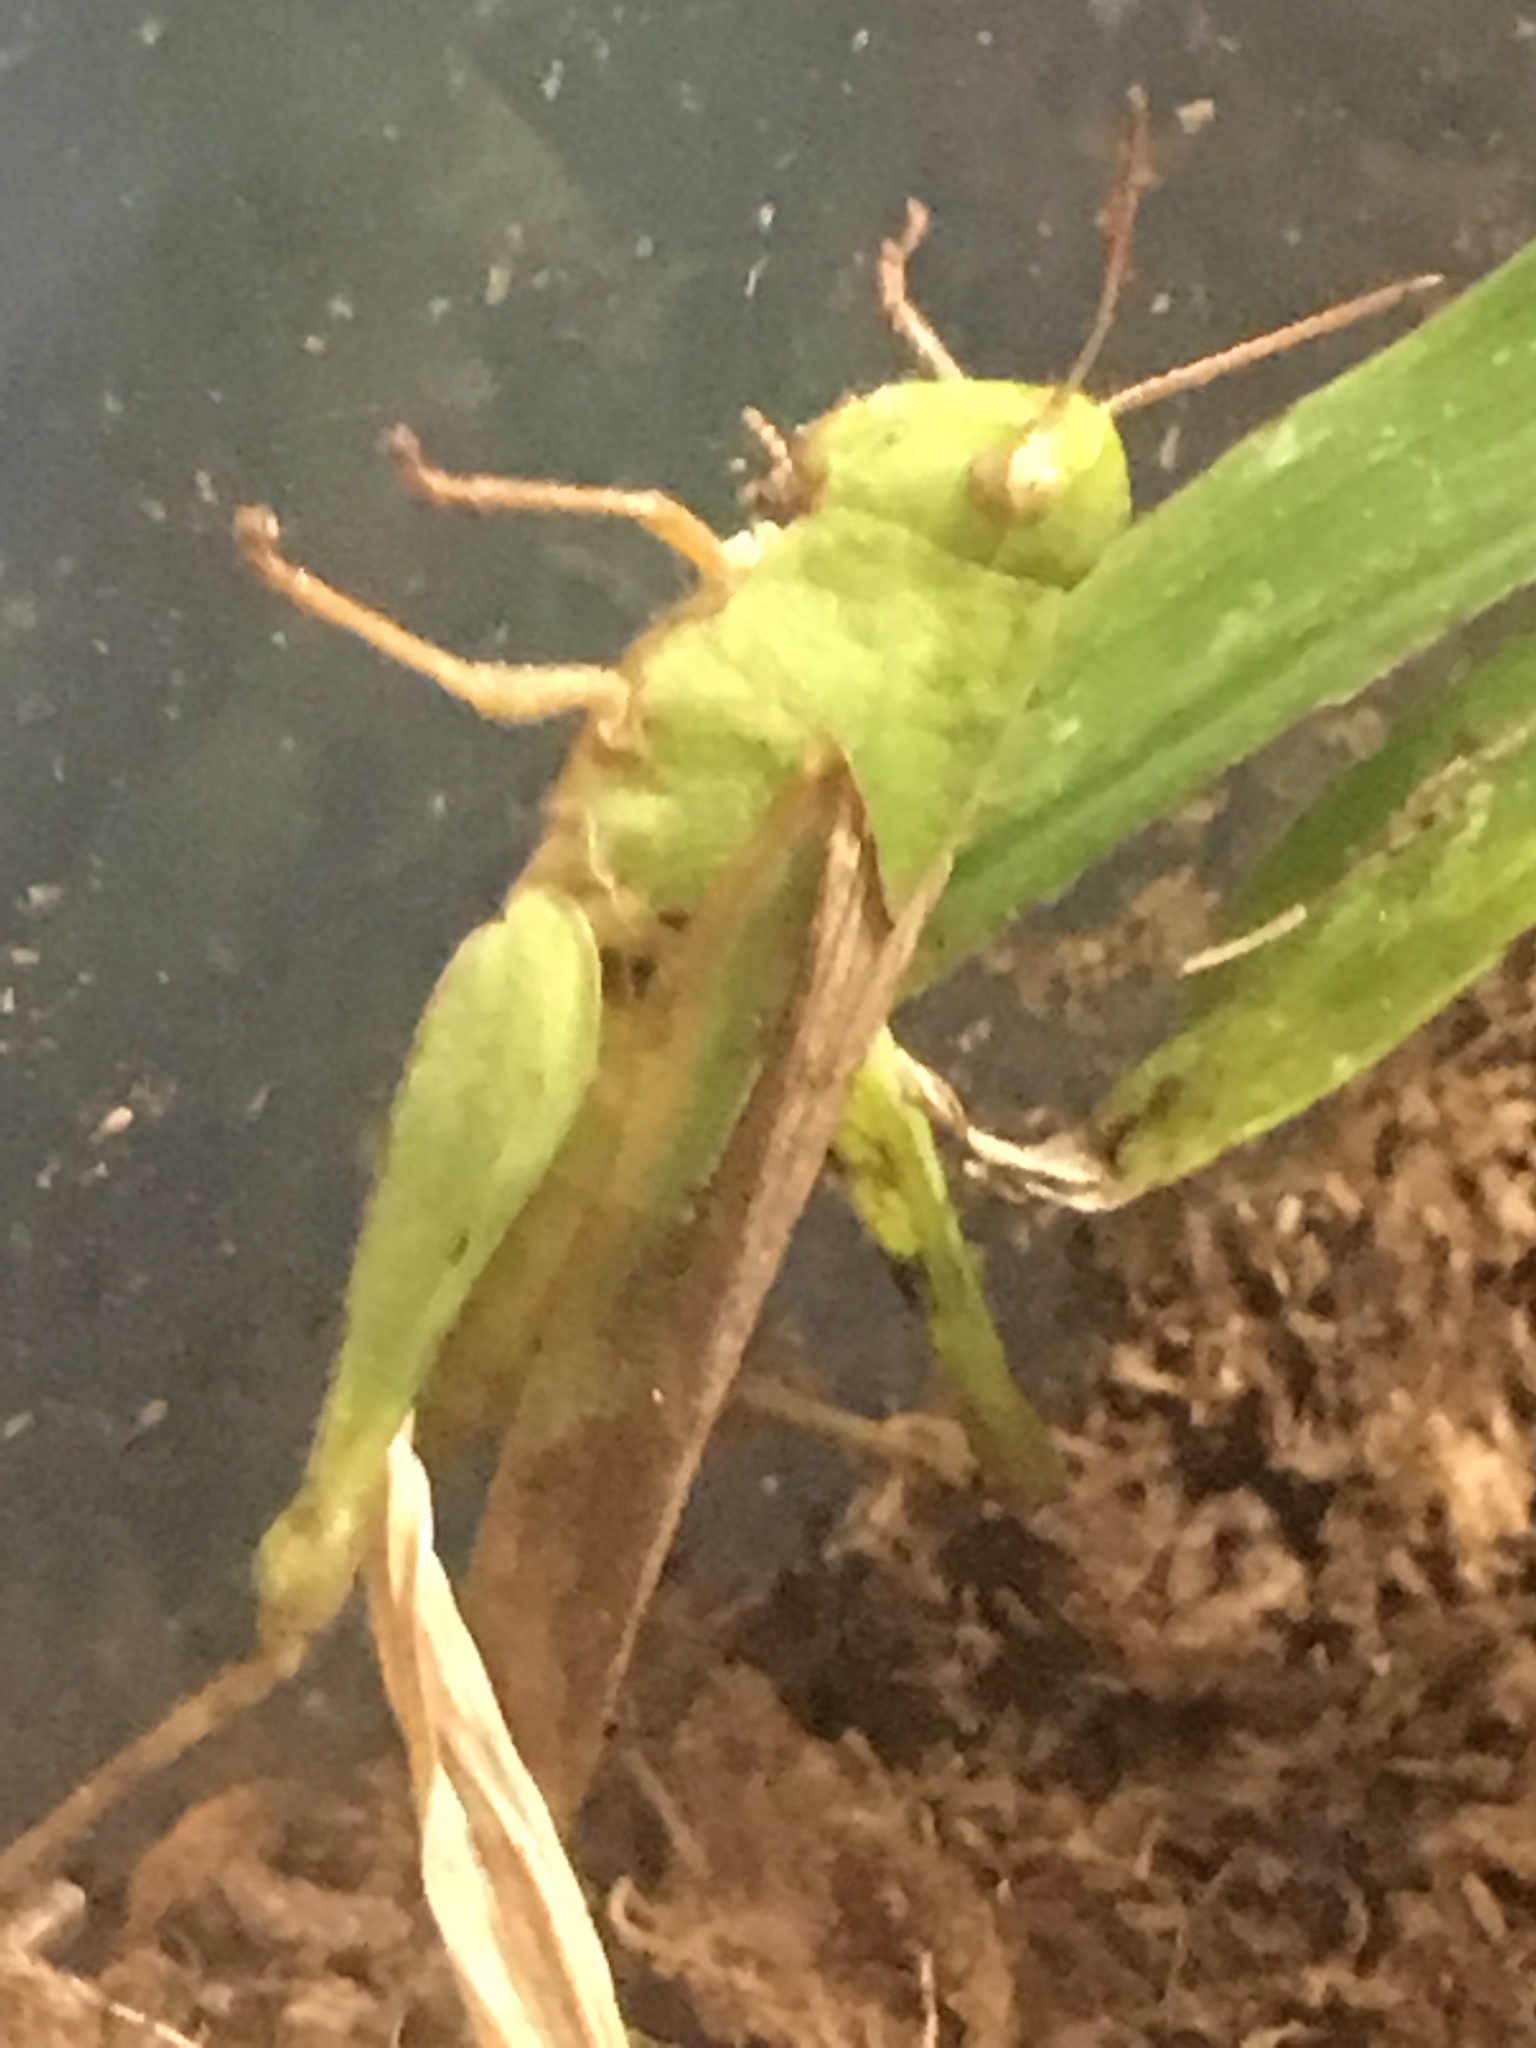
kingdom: Animalia
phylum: Arthropoda
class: Insecta
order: Orthoptera
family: Acrididae
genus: Chortophaga
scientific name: Chortophaga viridifasciata
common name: Green-striped grasshopper
